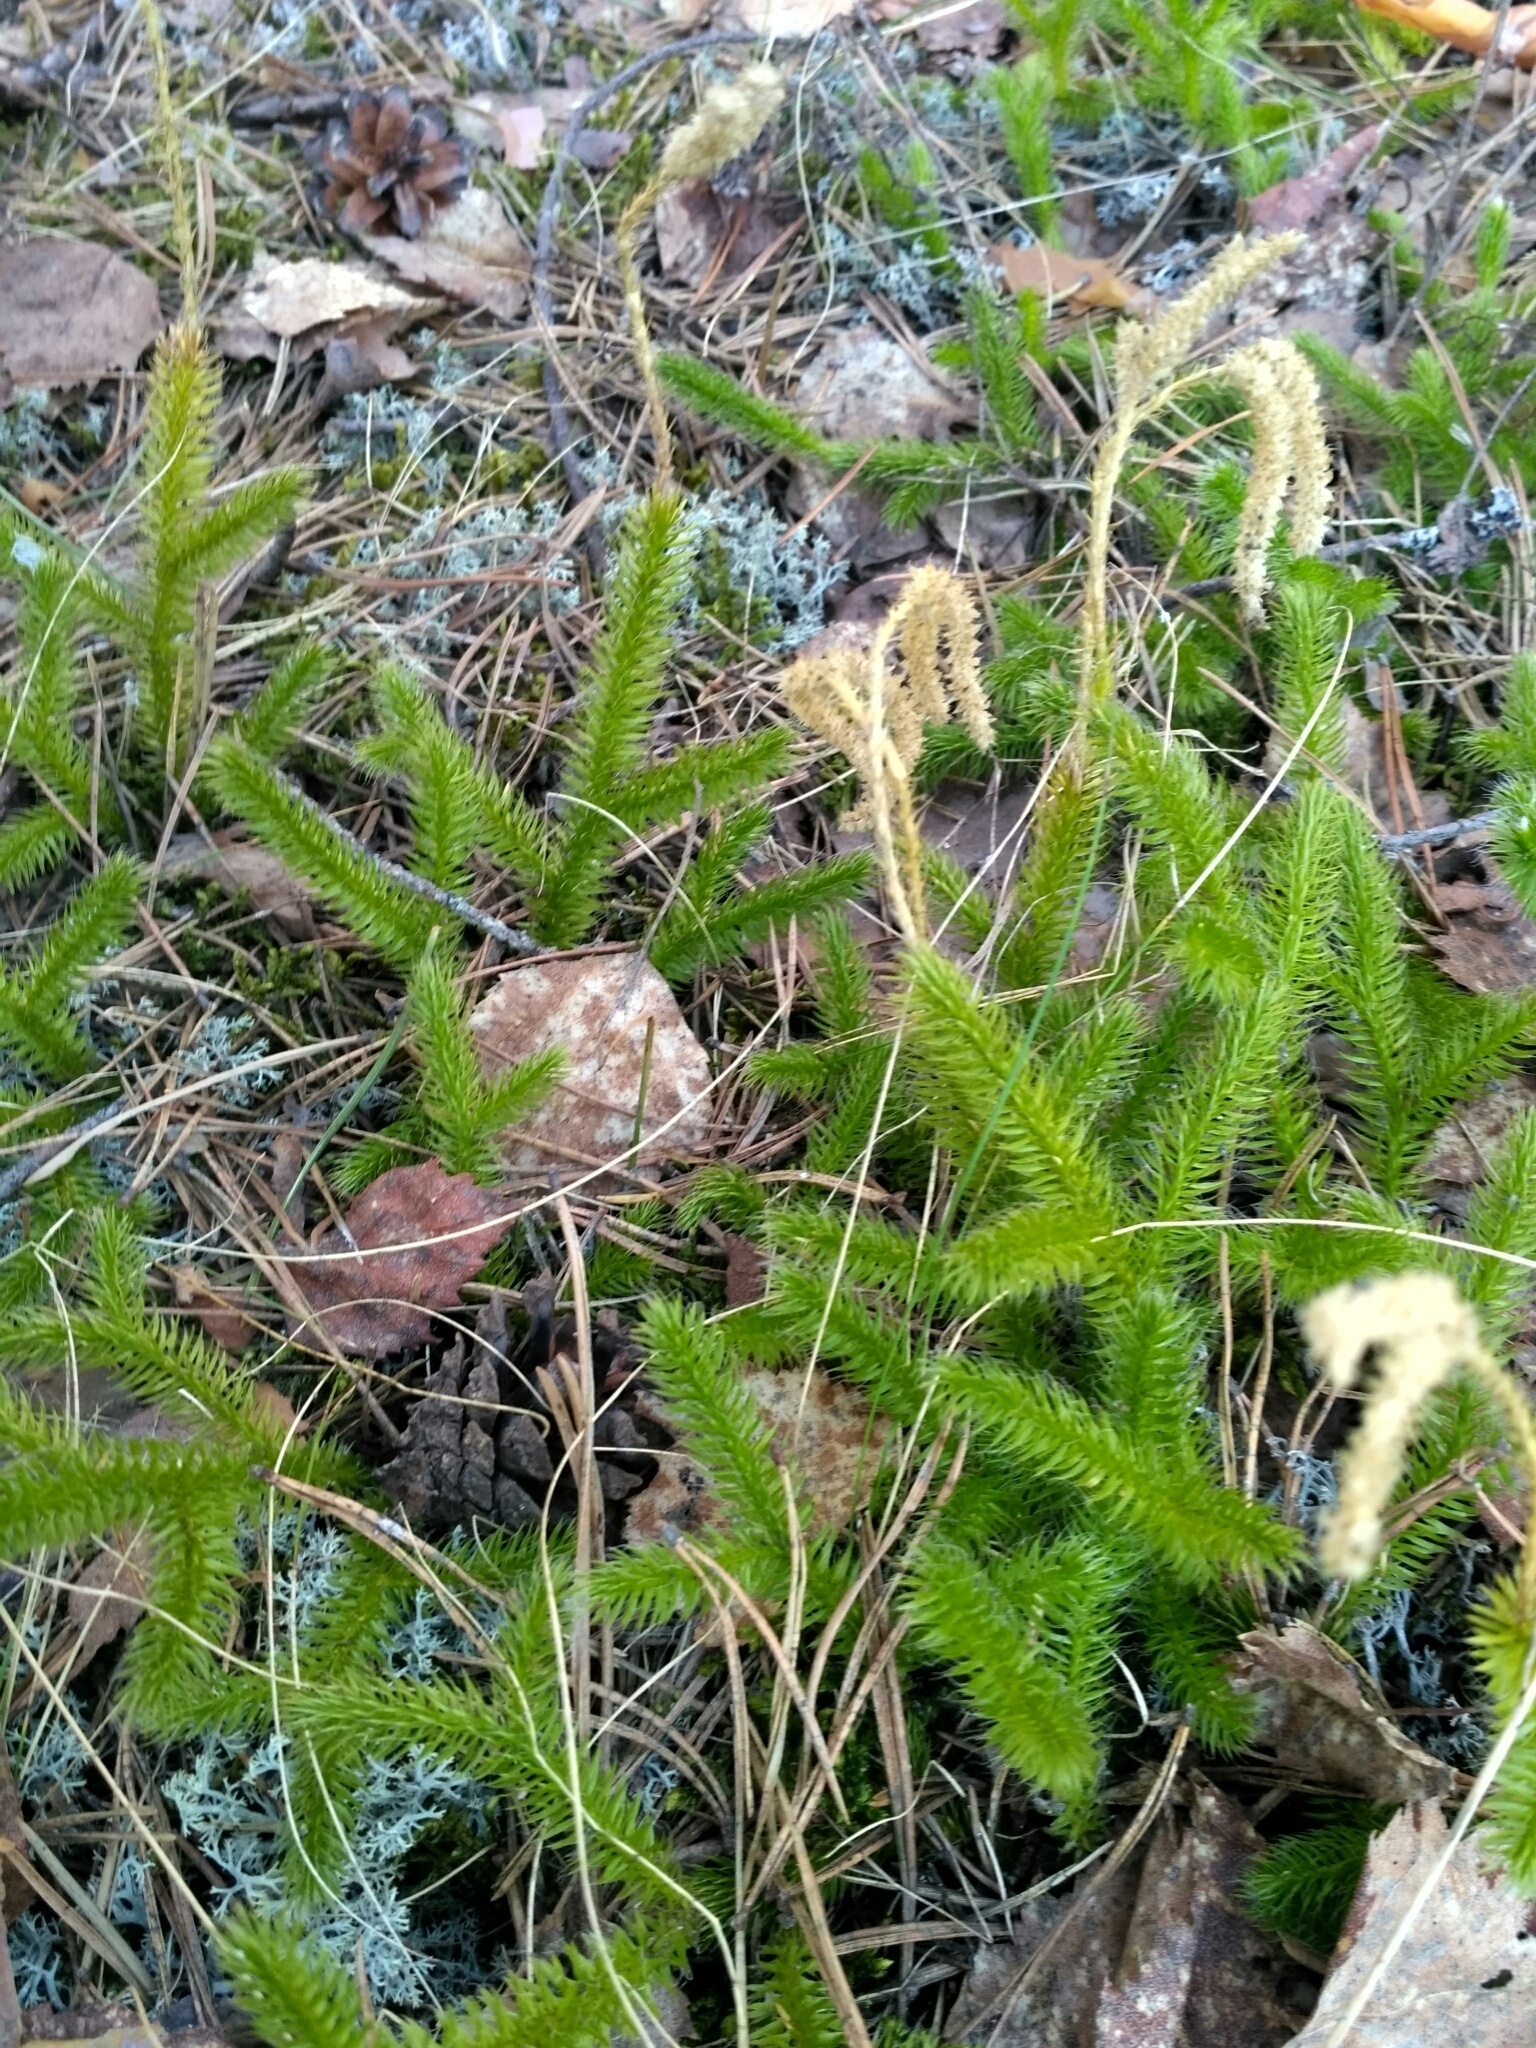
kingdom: Plantae
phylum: Tracheophyta
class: Lycopodiopsida
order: Lycopodiales
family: Lycopodiaceae
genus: Lycopodium
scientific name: Lycopodium clavatum
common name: Stag's-horn clubmoss
